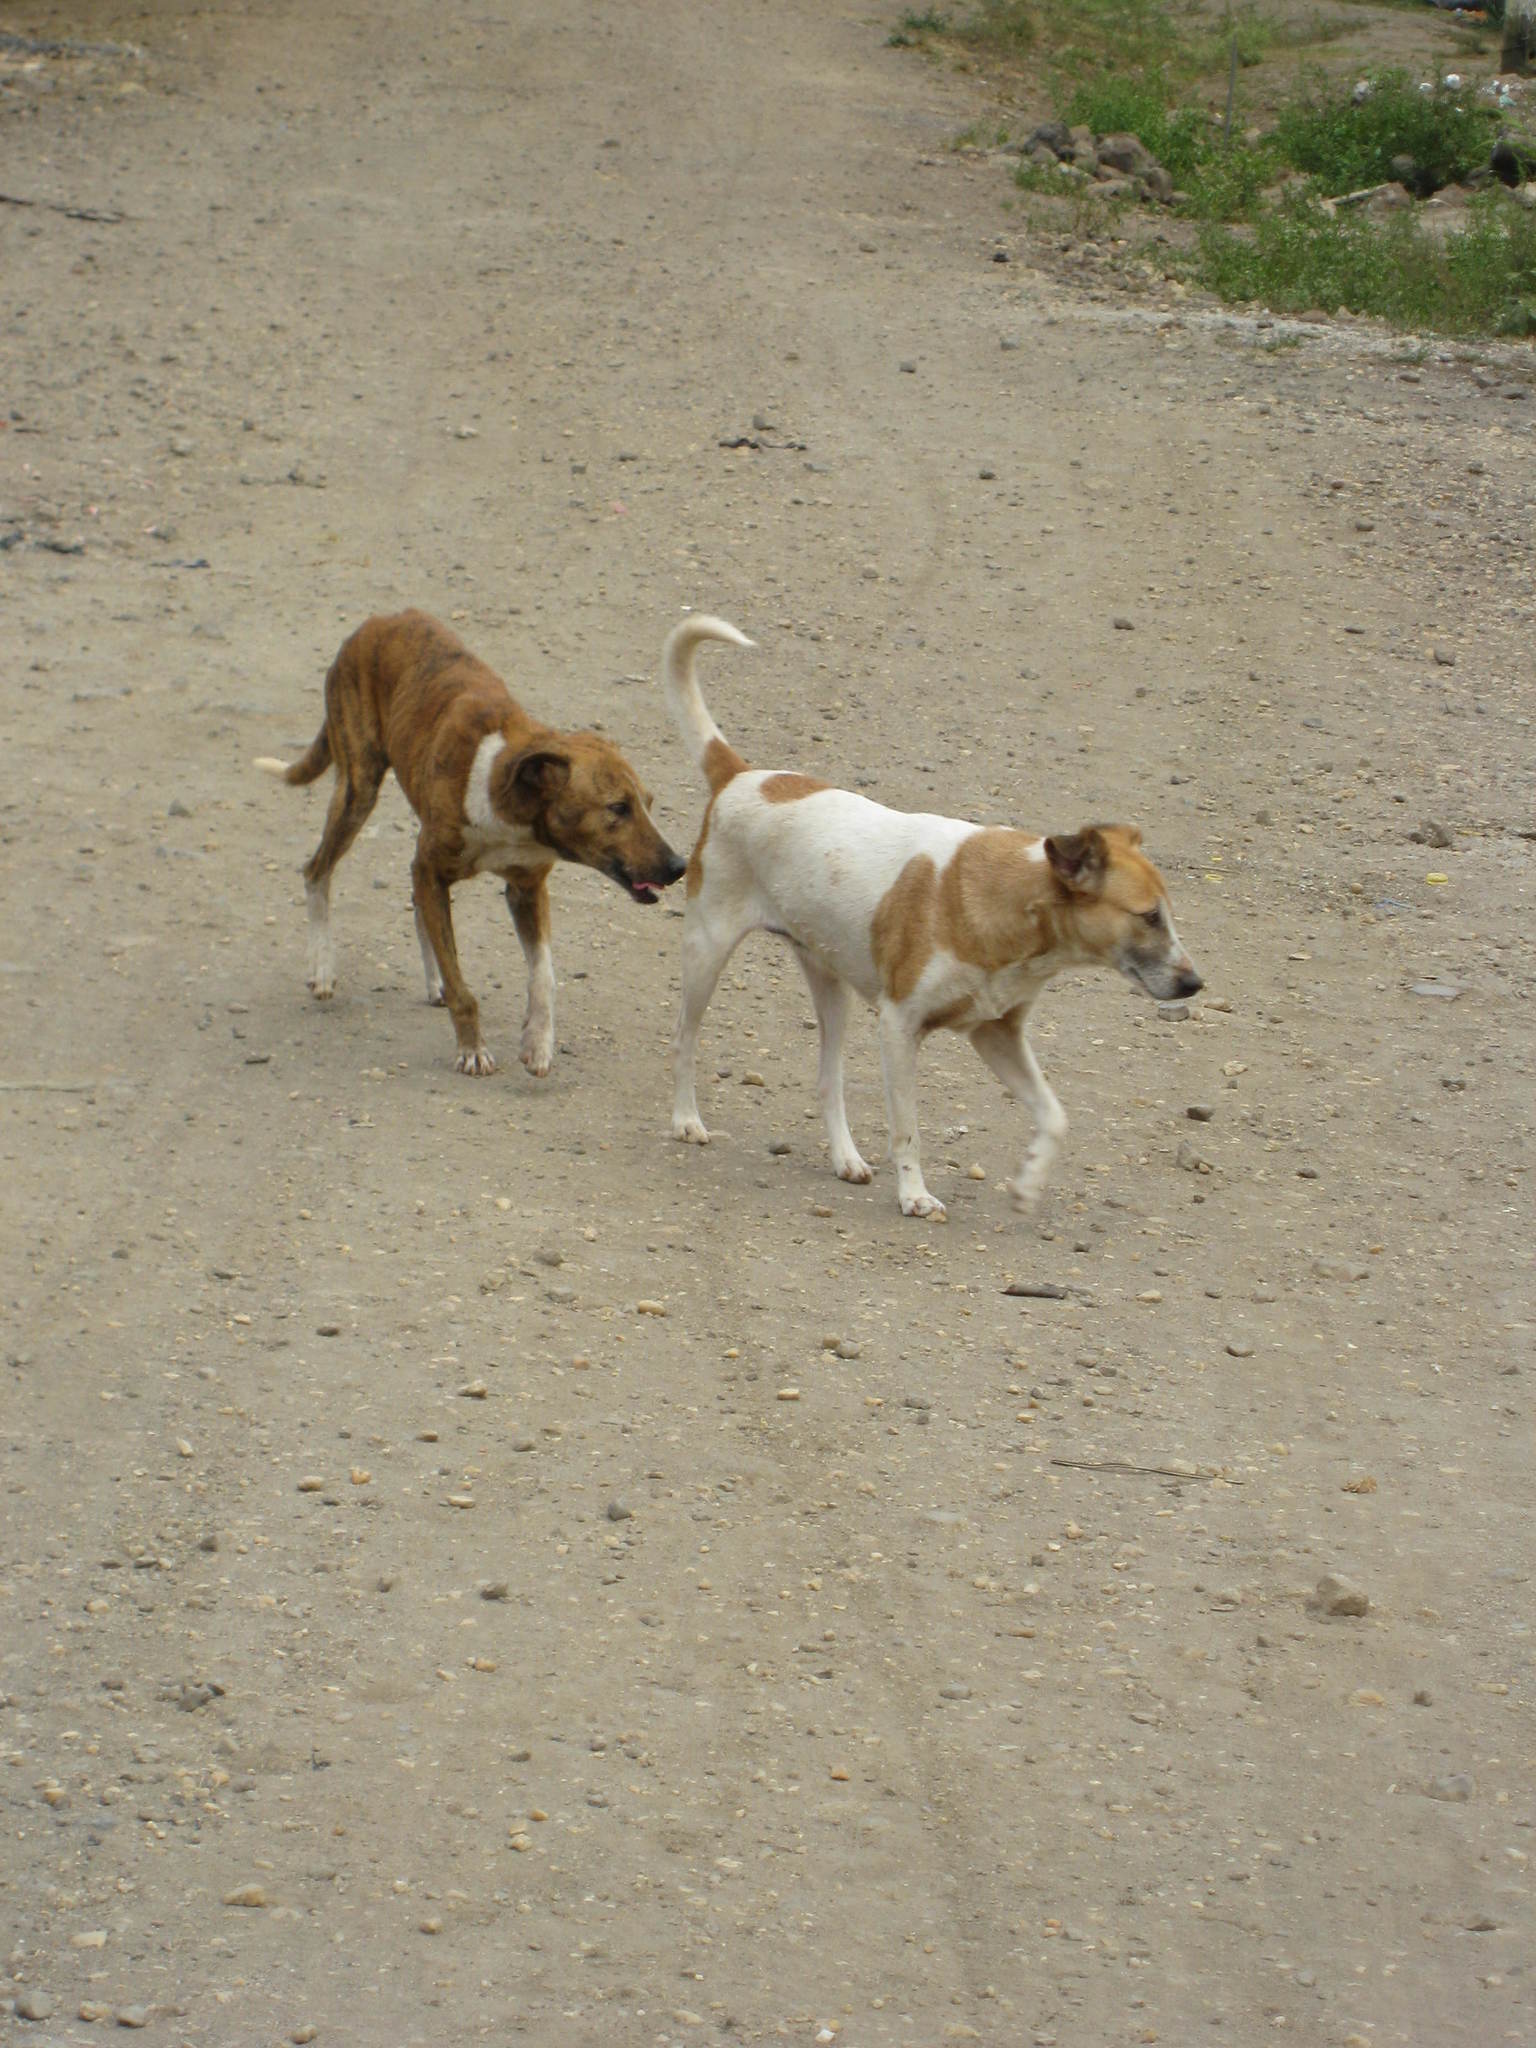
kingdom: Animalia
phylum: Chordata
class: Mammalia
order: Carnivora
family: Canidae
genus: Canis
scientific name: Canis lupus
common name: Gray wolf
